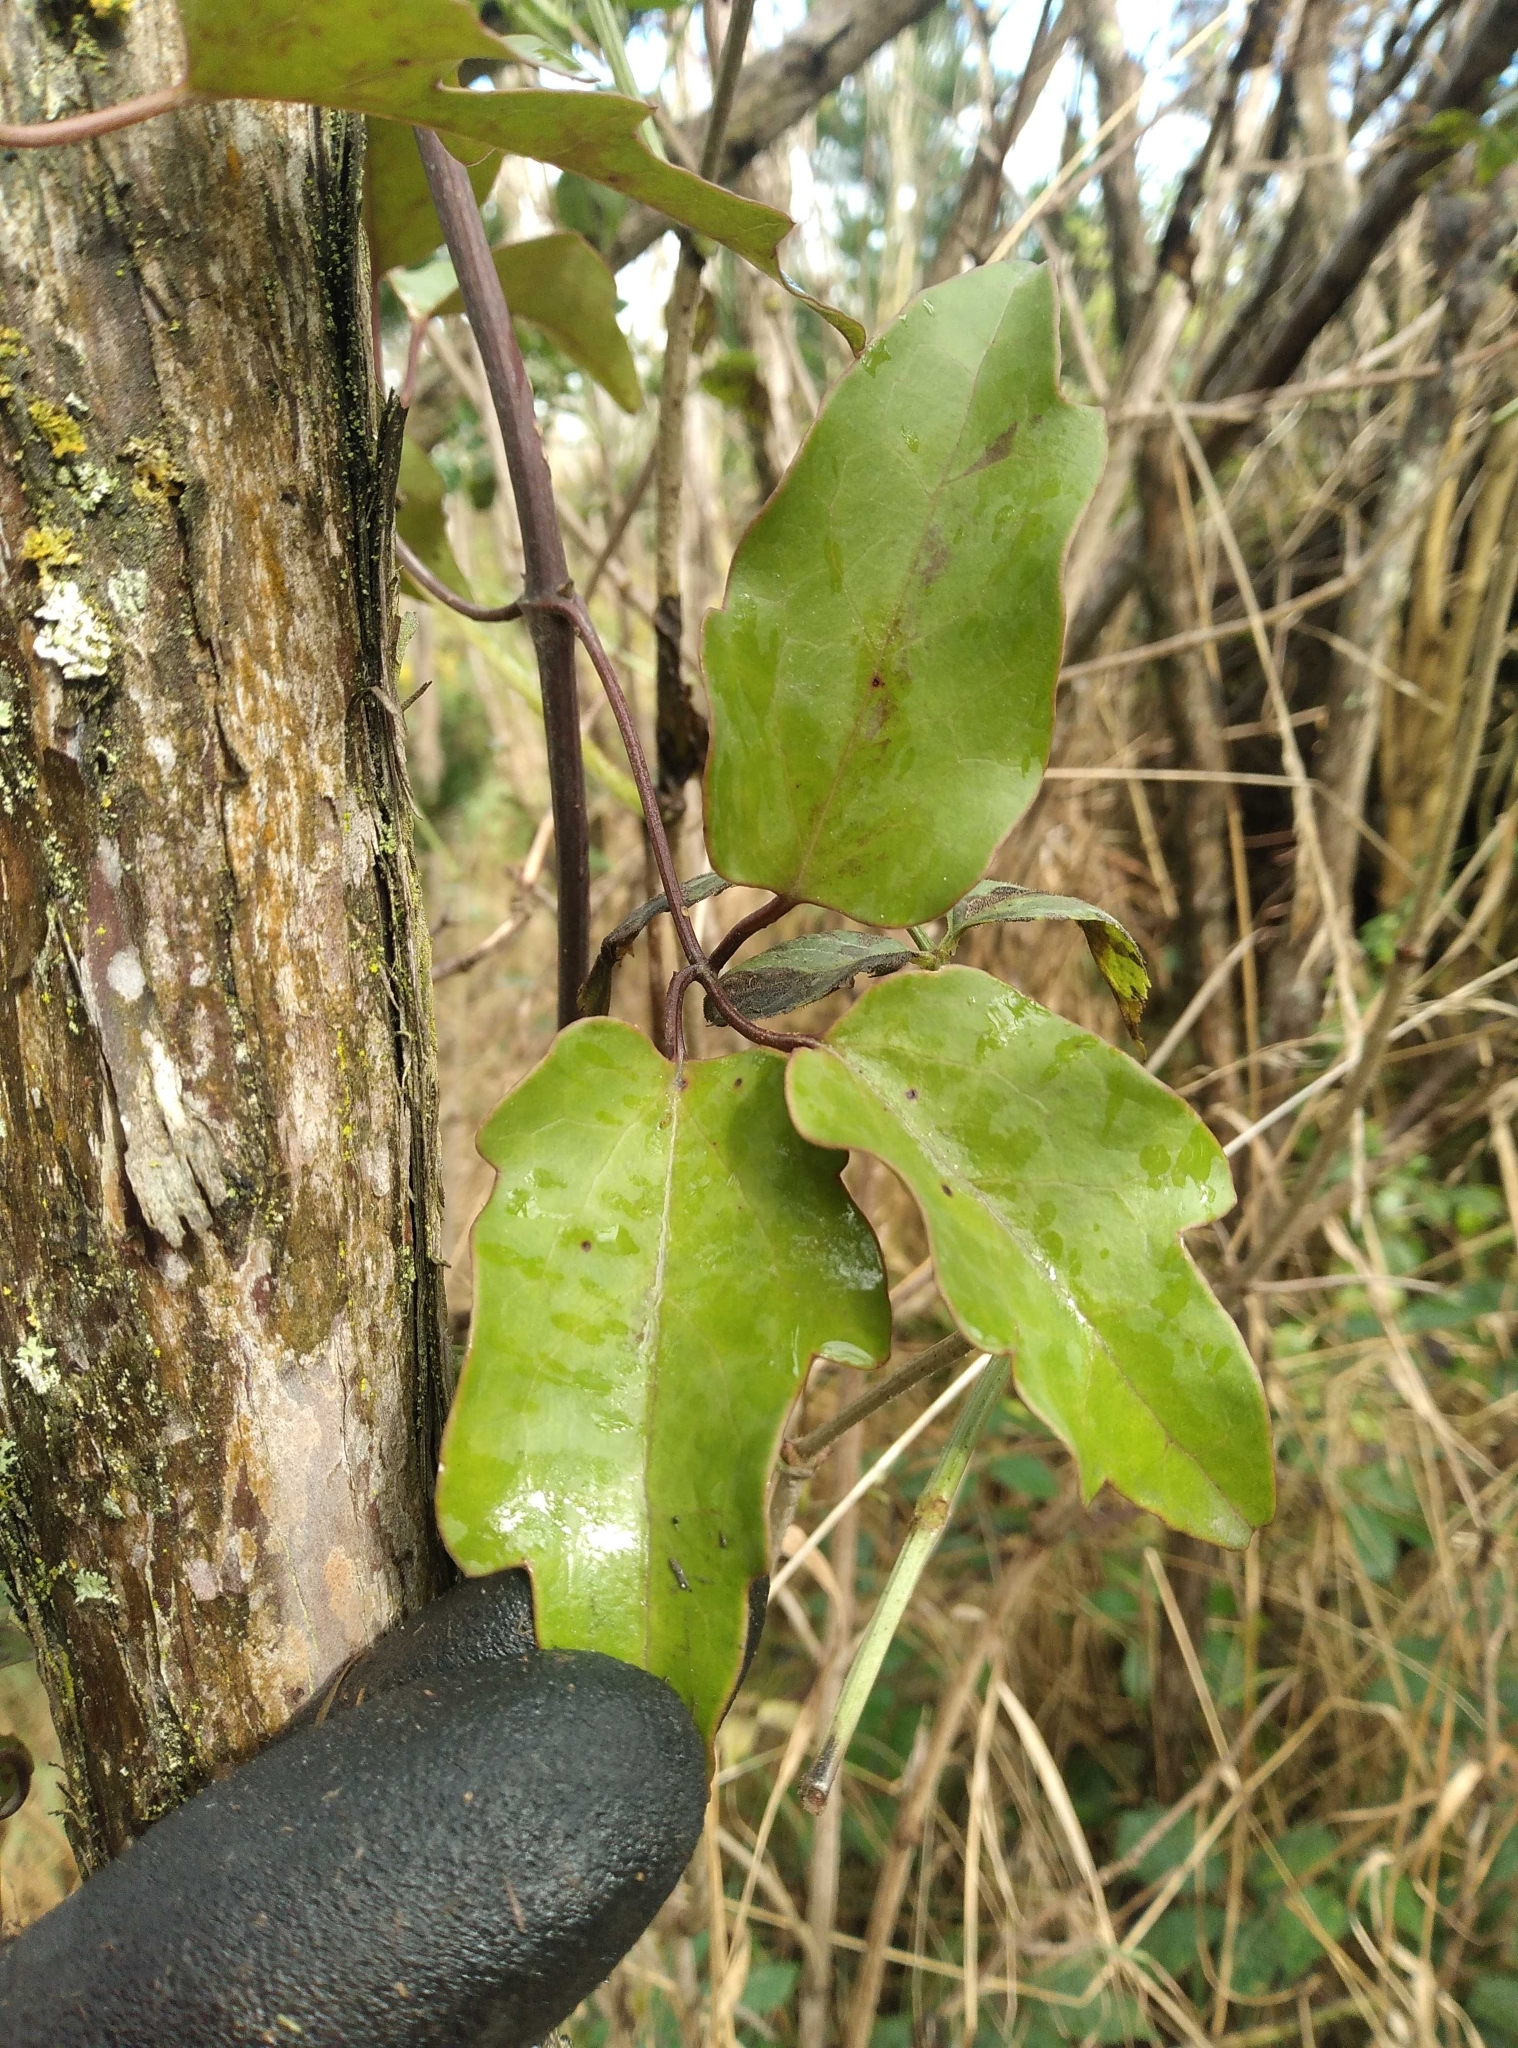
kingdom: Plantae
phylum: Tracheophyta
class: Magnoliopsida
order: Ranunculales
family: Ranunculaceae
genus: Clematis
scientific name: Clematis paniculata
